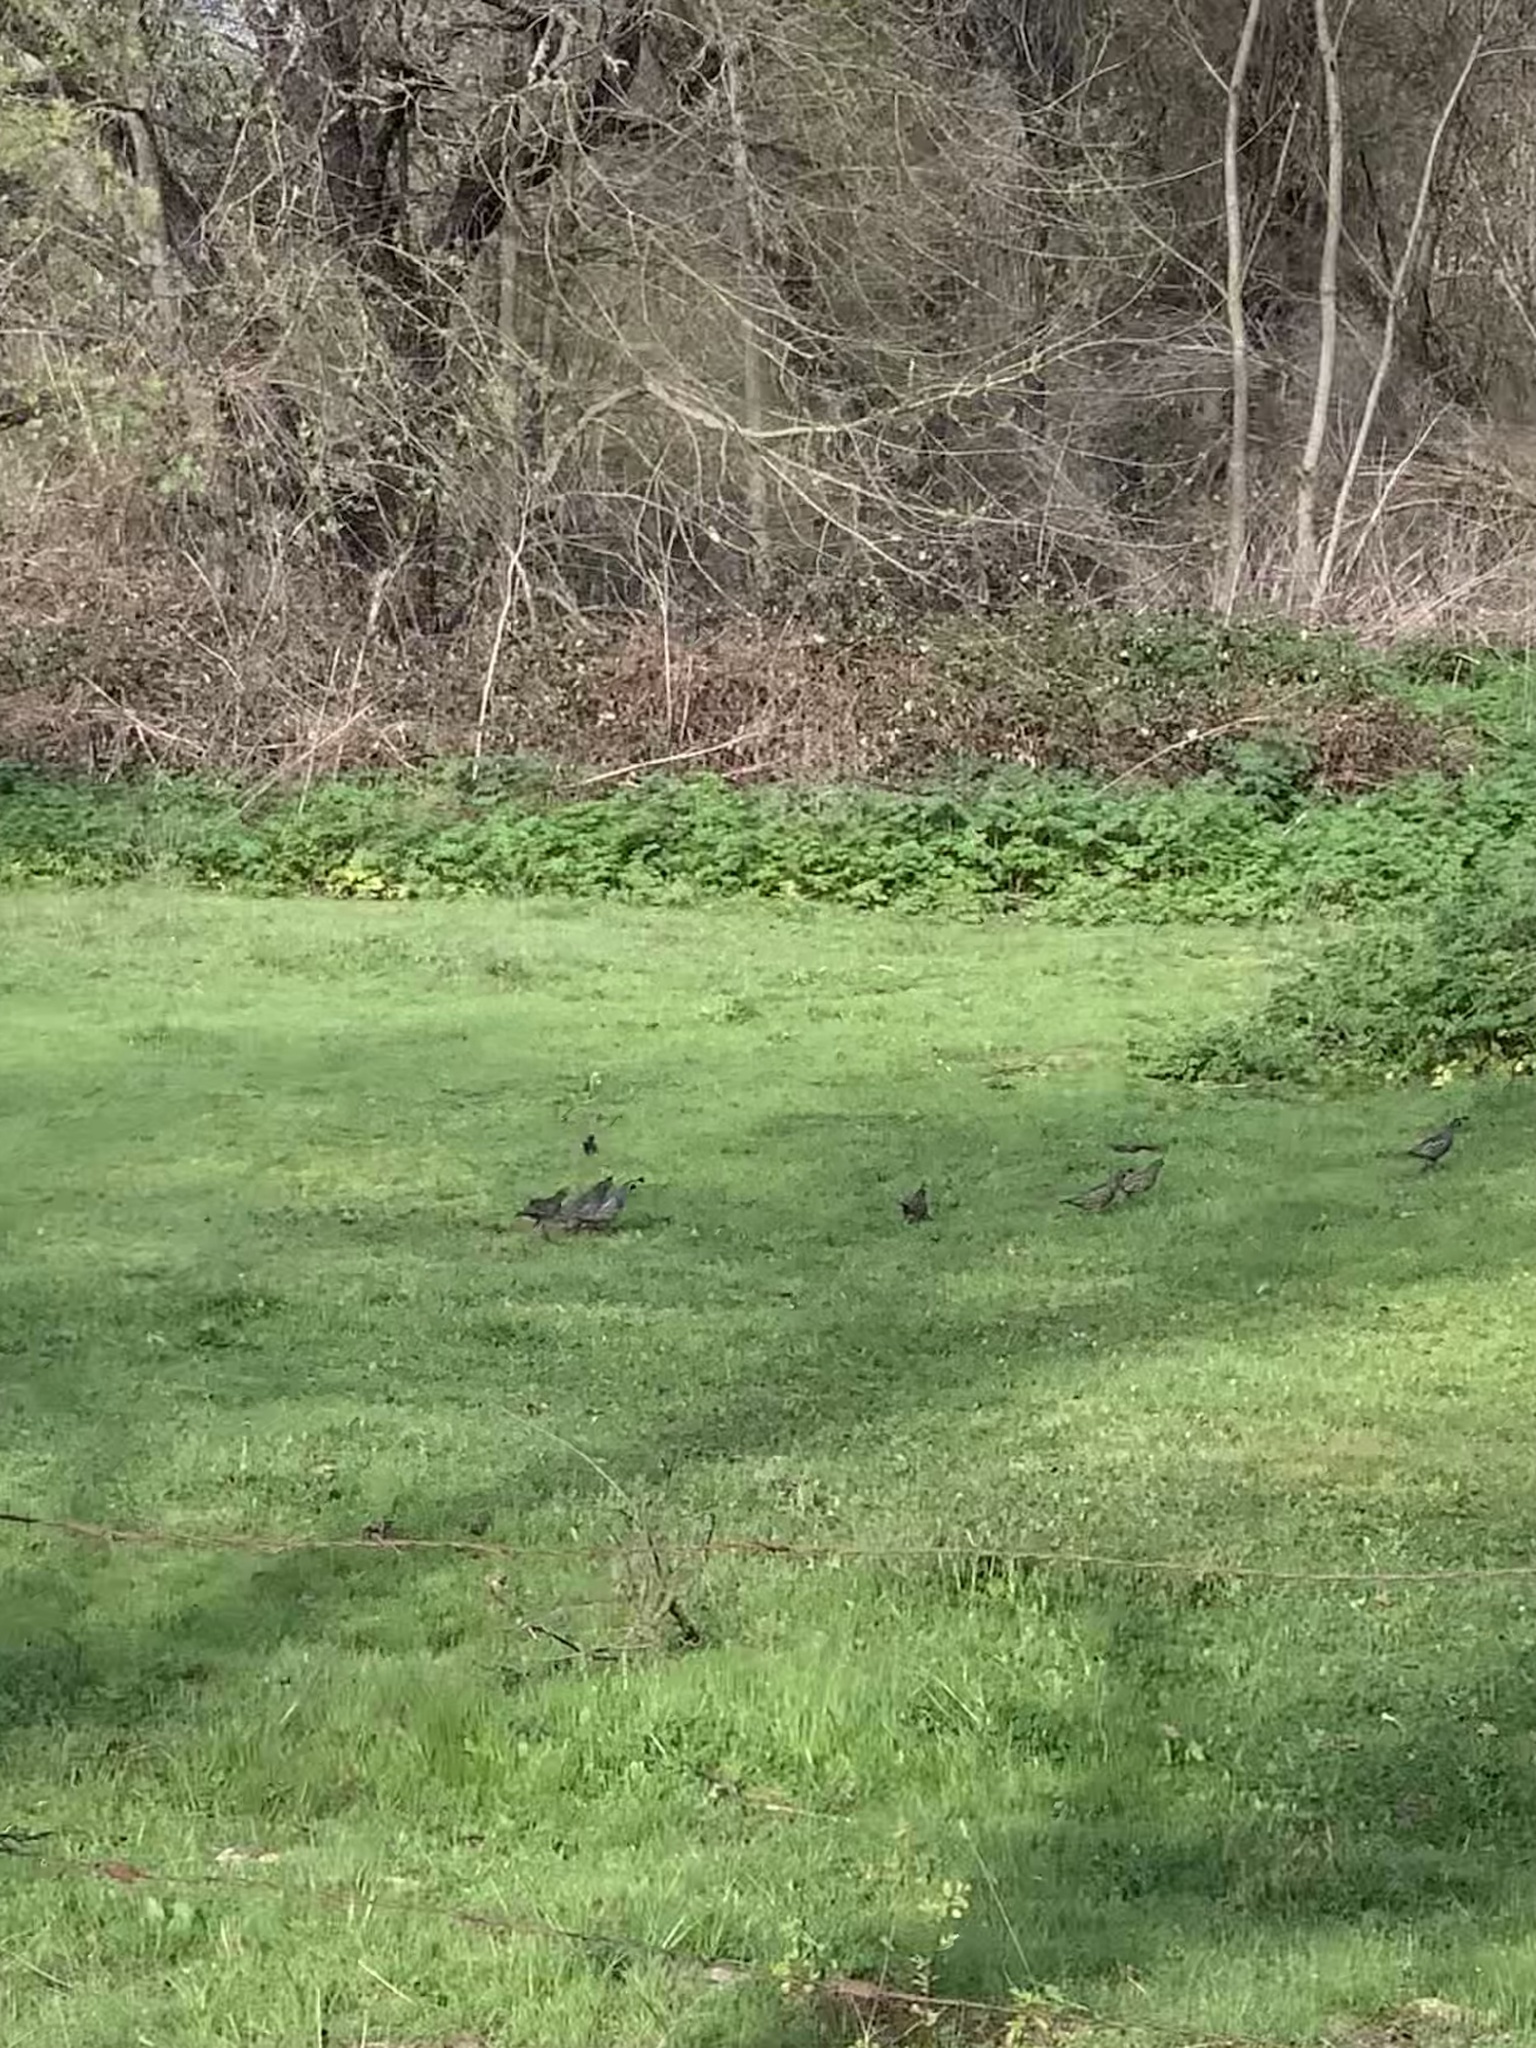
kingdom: Animalia
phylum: Chordata
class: Aves
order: Galliformes
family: Odontophoridae
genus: Callipepla
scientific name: Callipepla californica
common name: California quail
